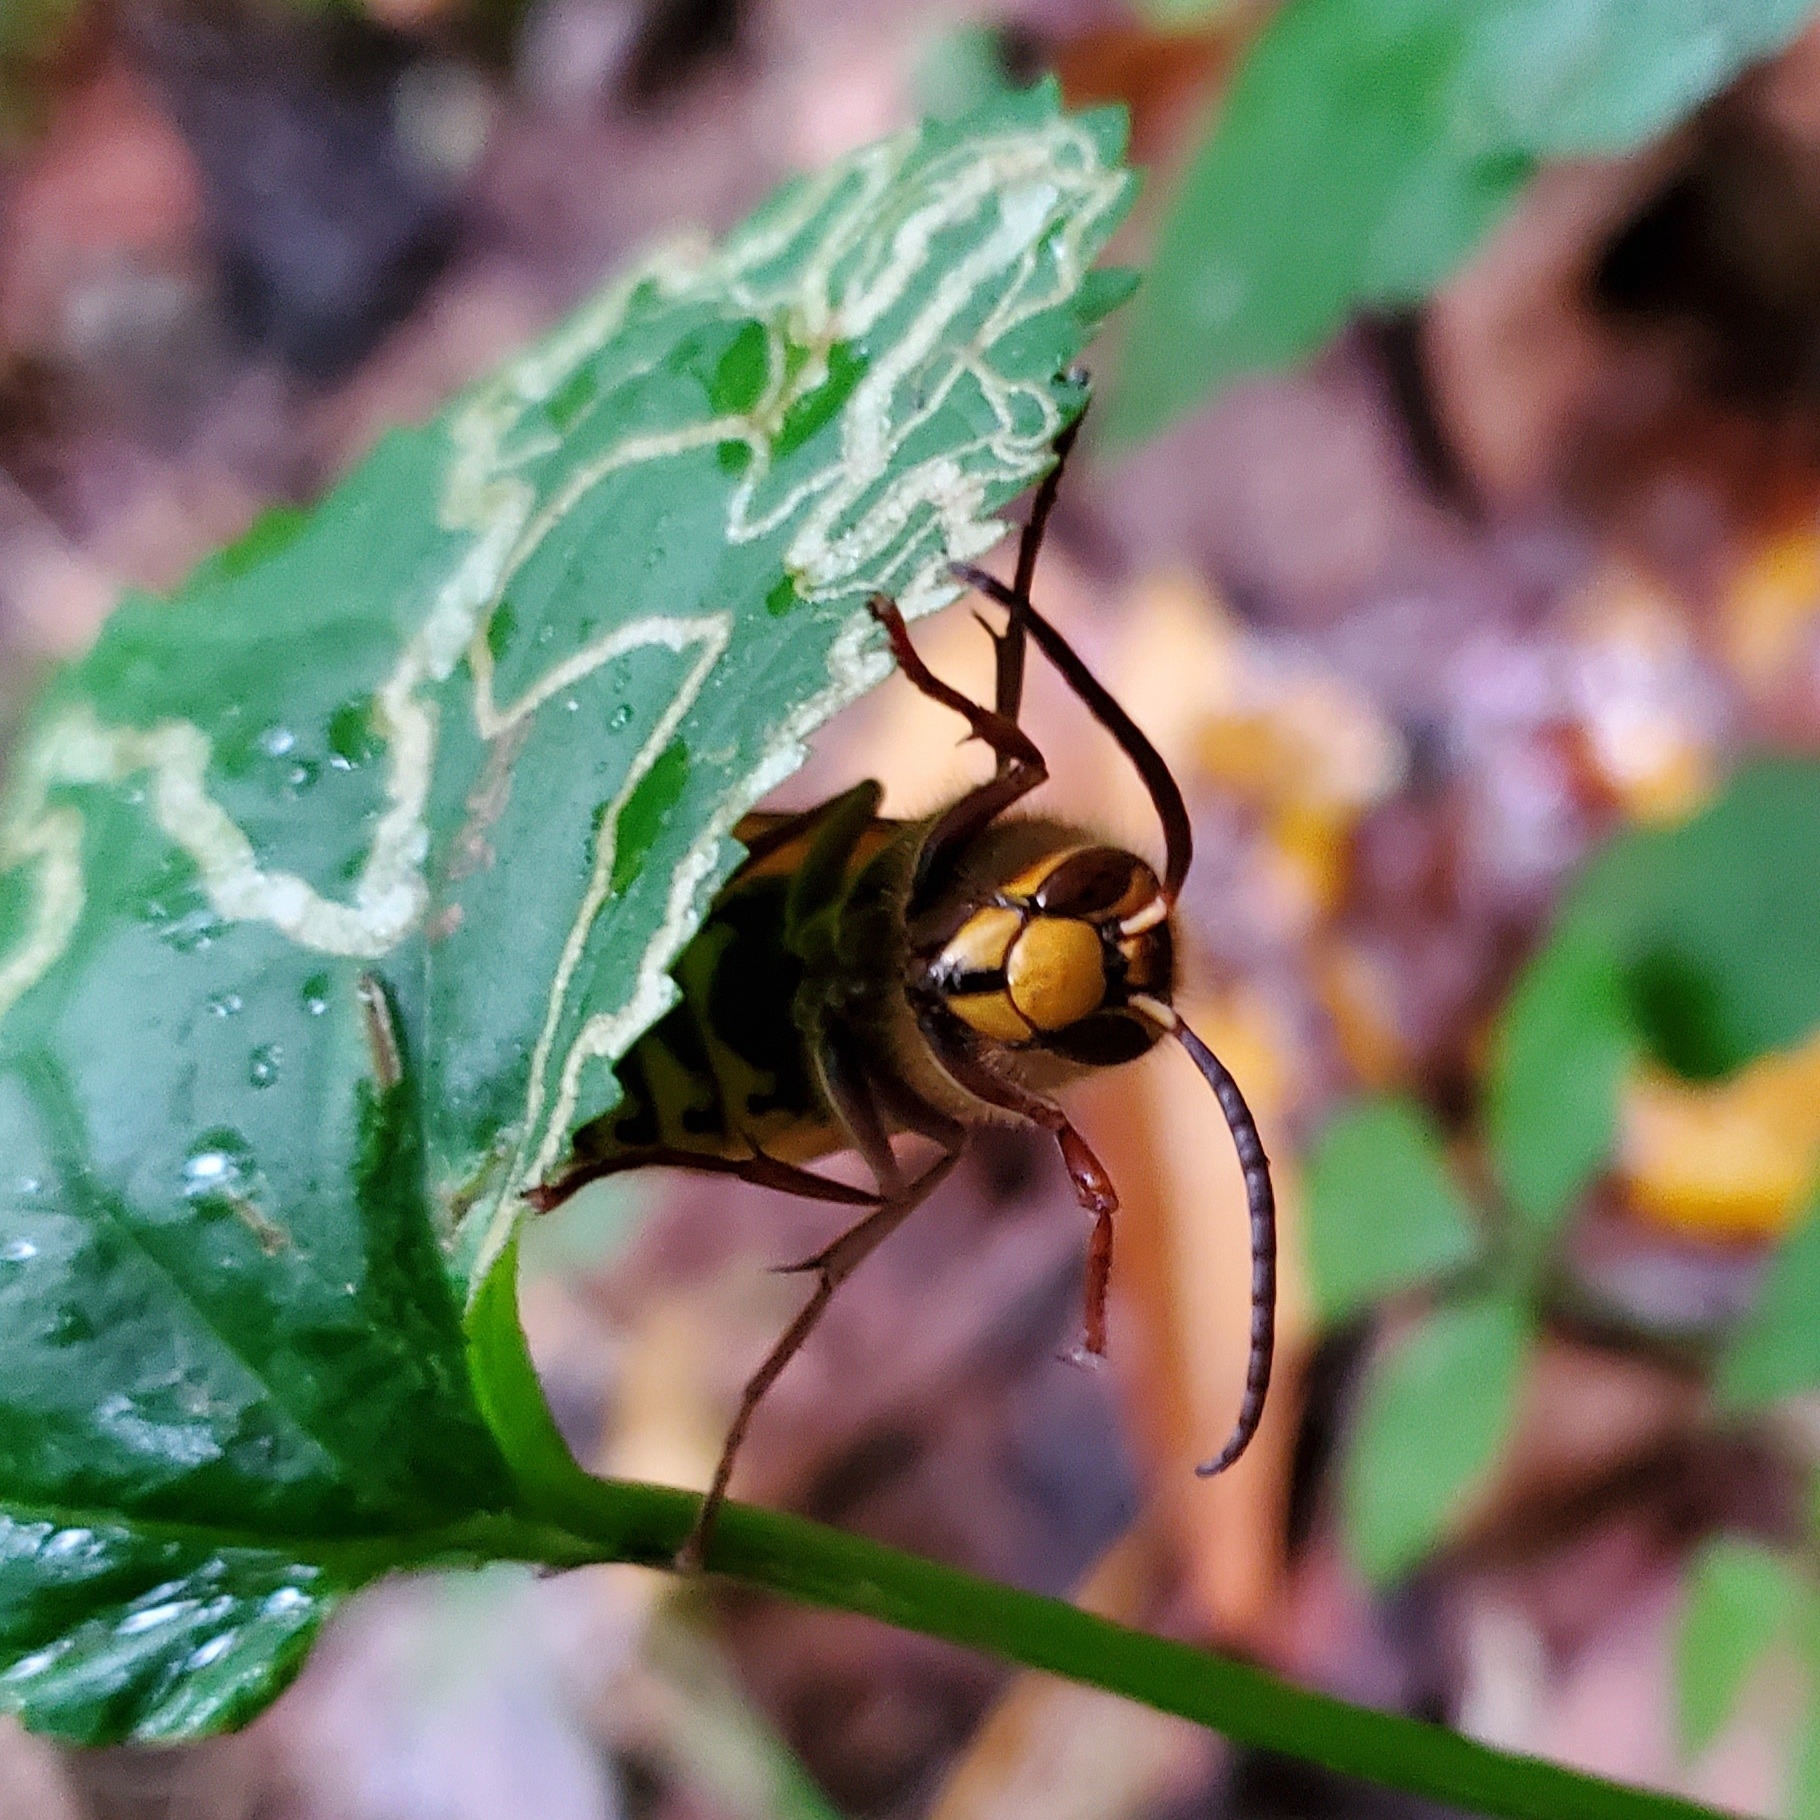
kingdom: Animalia
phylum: Arthropoda
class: Insecta
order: Hymenoptera
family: Vespidae
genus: Vespa
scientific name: Vespa crabro
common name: Hornet
